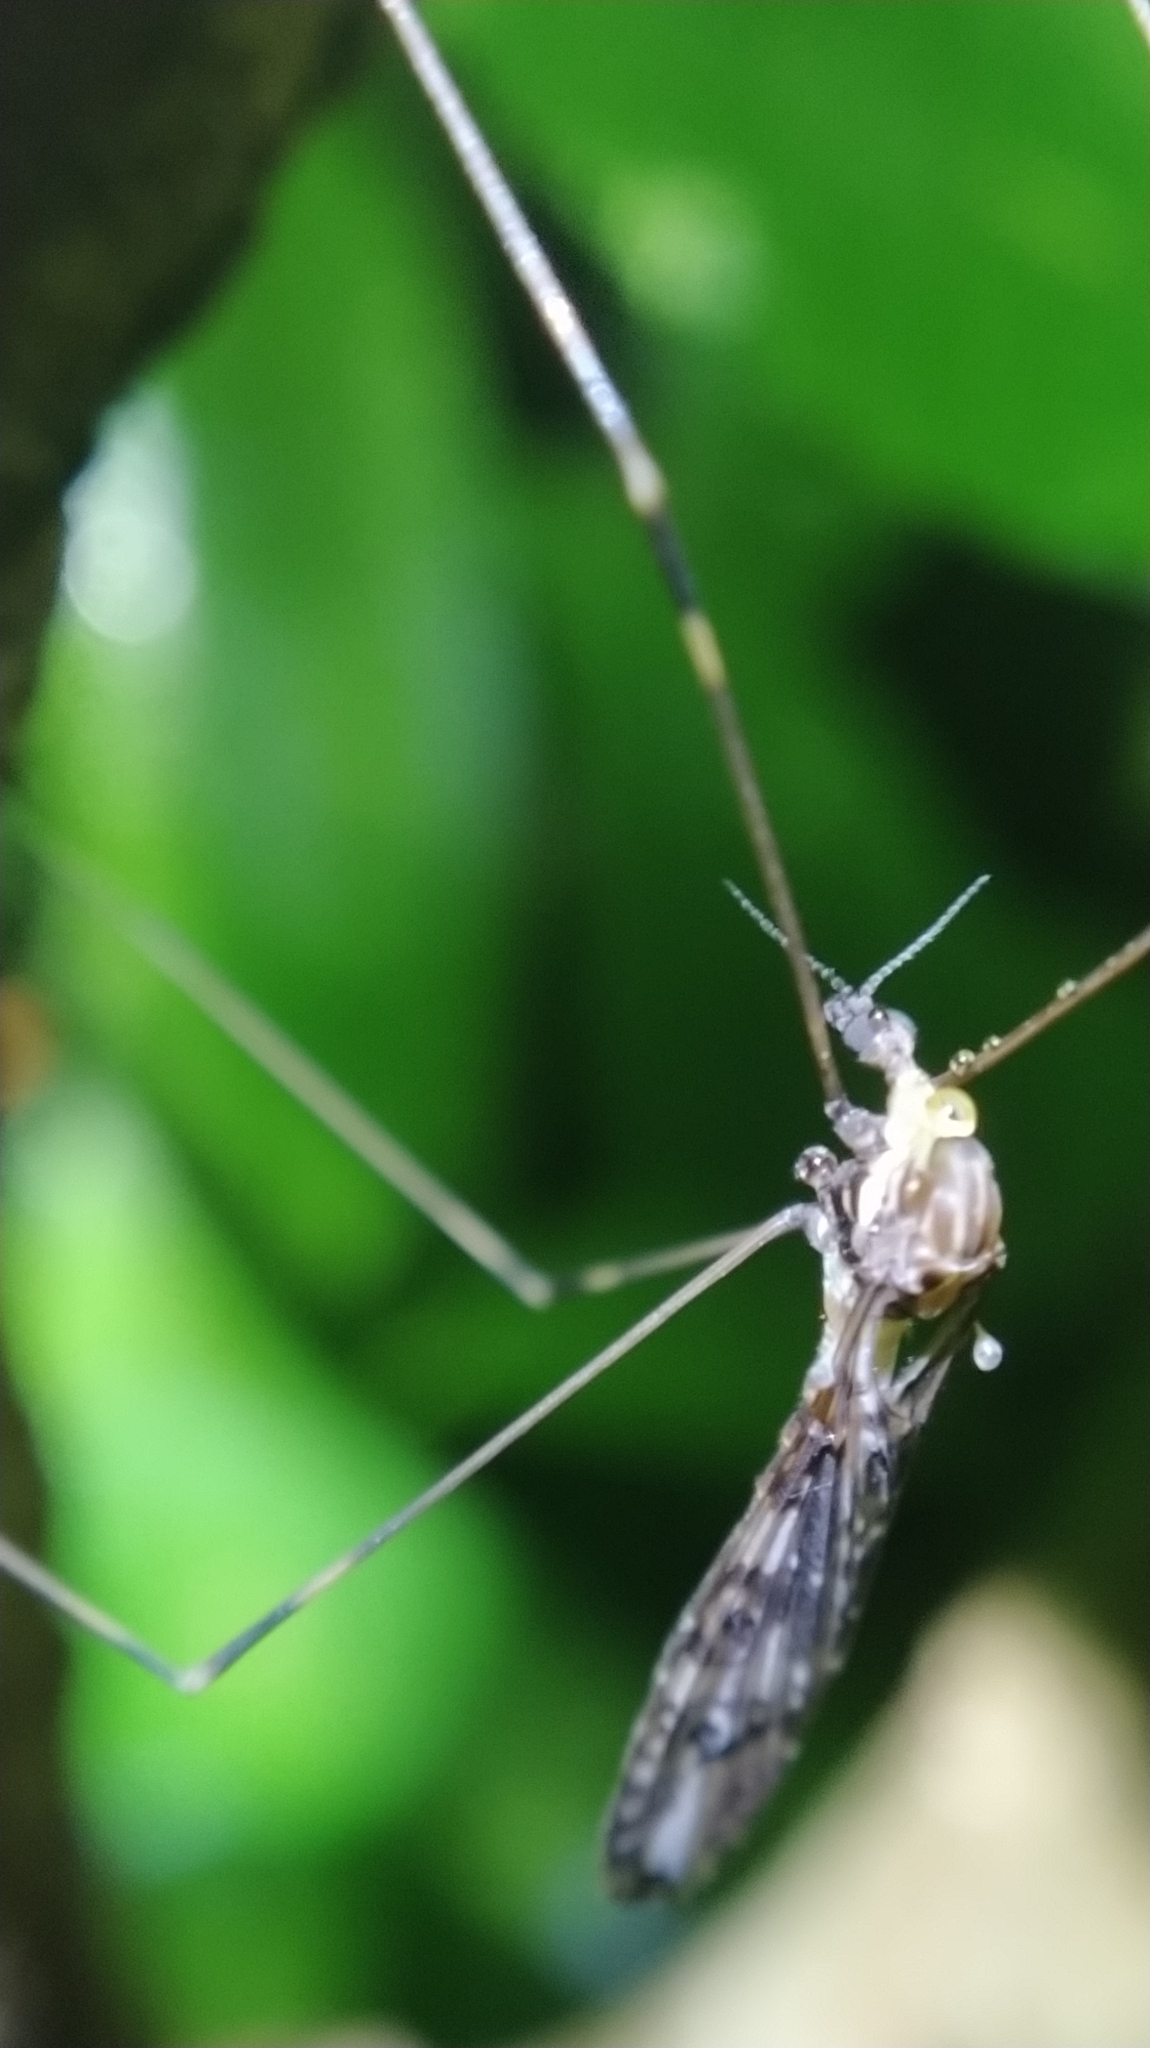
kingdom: Animalia
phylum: Arthropoda
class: Insecta
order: Diptera
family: Limoniidae
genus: Discobola
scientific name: Discobola dohrni
